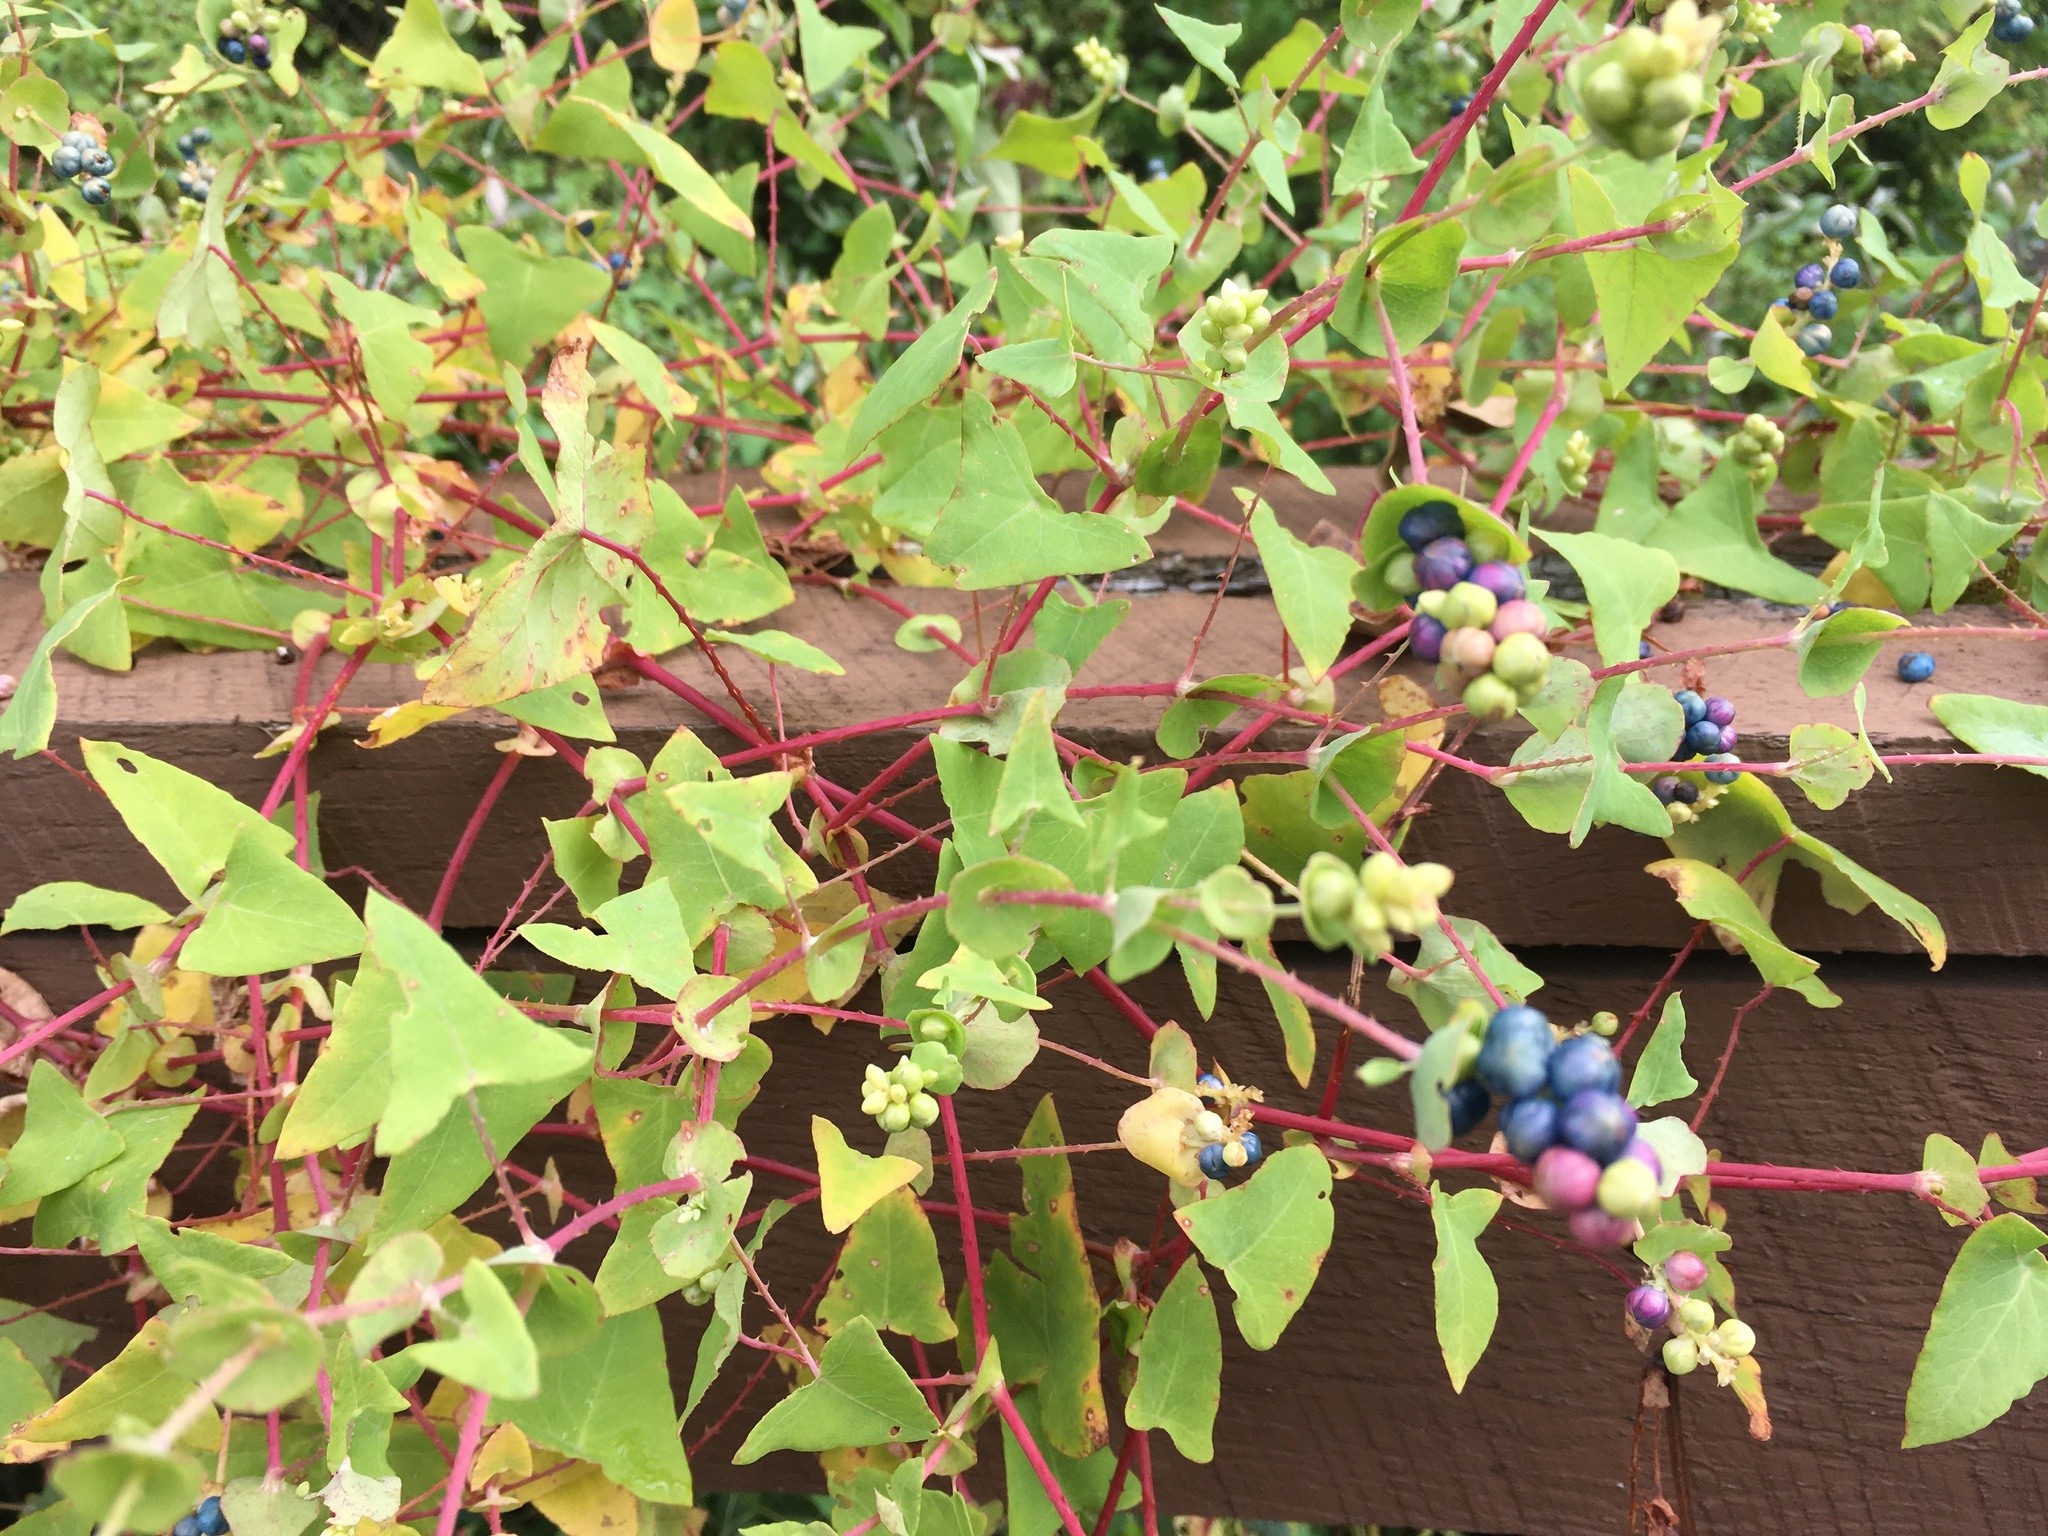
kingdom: Plantae
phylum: Tracheophyta
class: Magnoliopsida
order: Caryophyllales
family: Polygonaceae
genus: Persicaria
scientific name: Persicaria perfoliata
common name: Asiatic tearthumb
